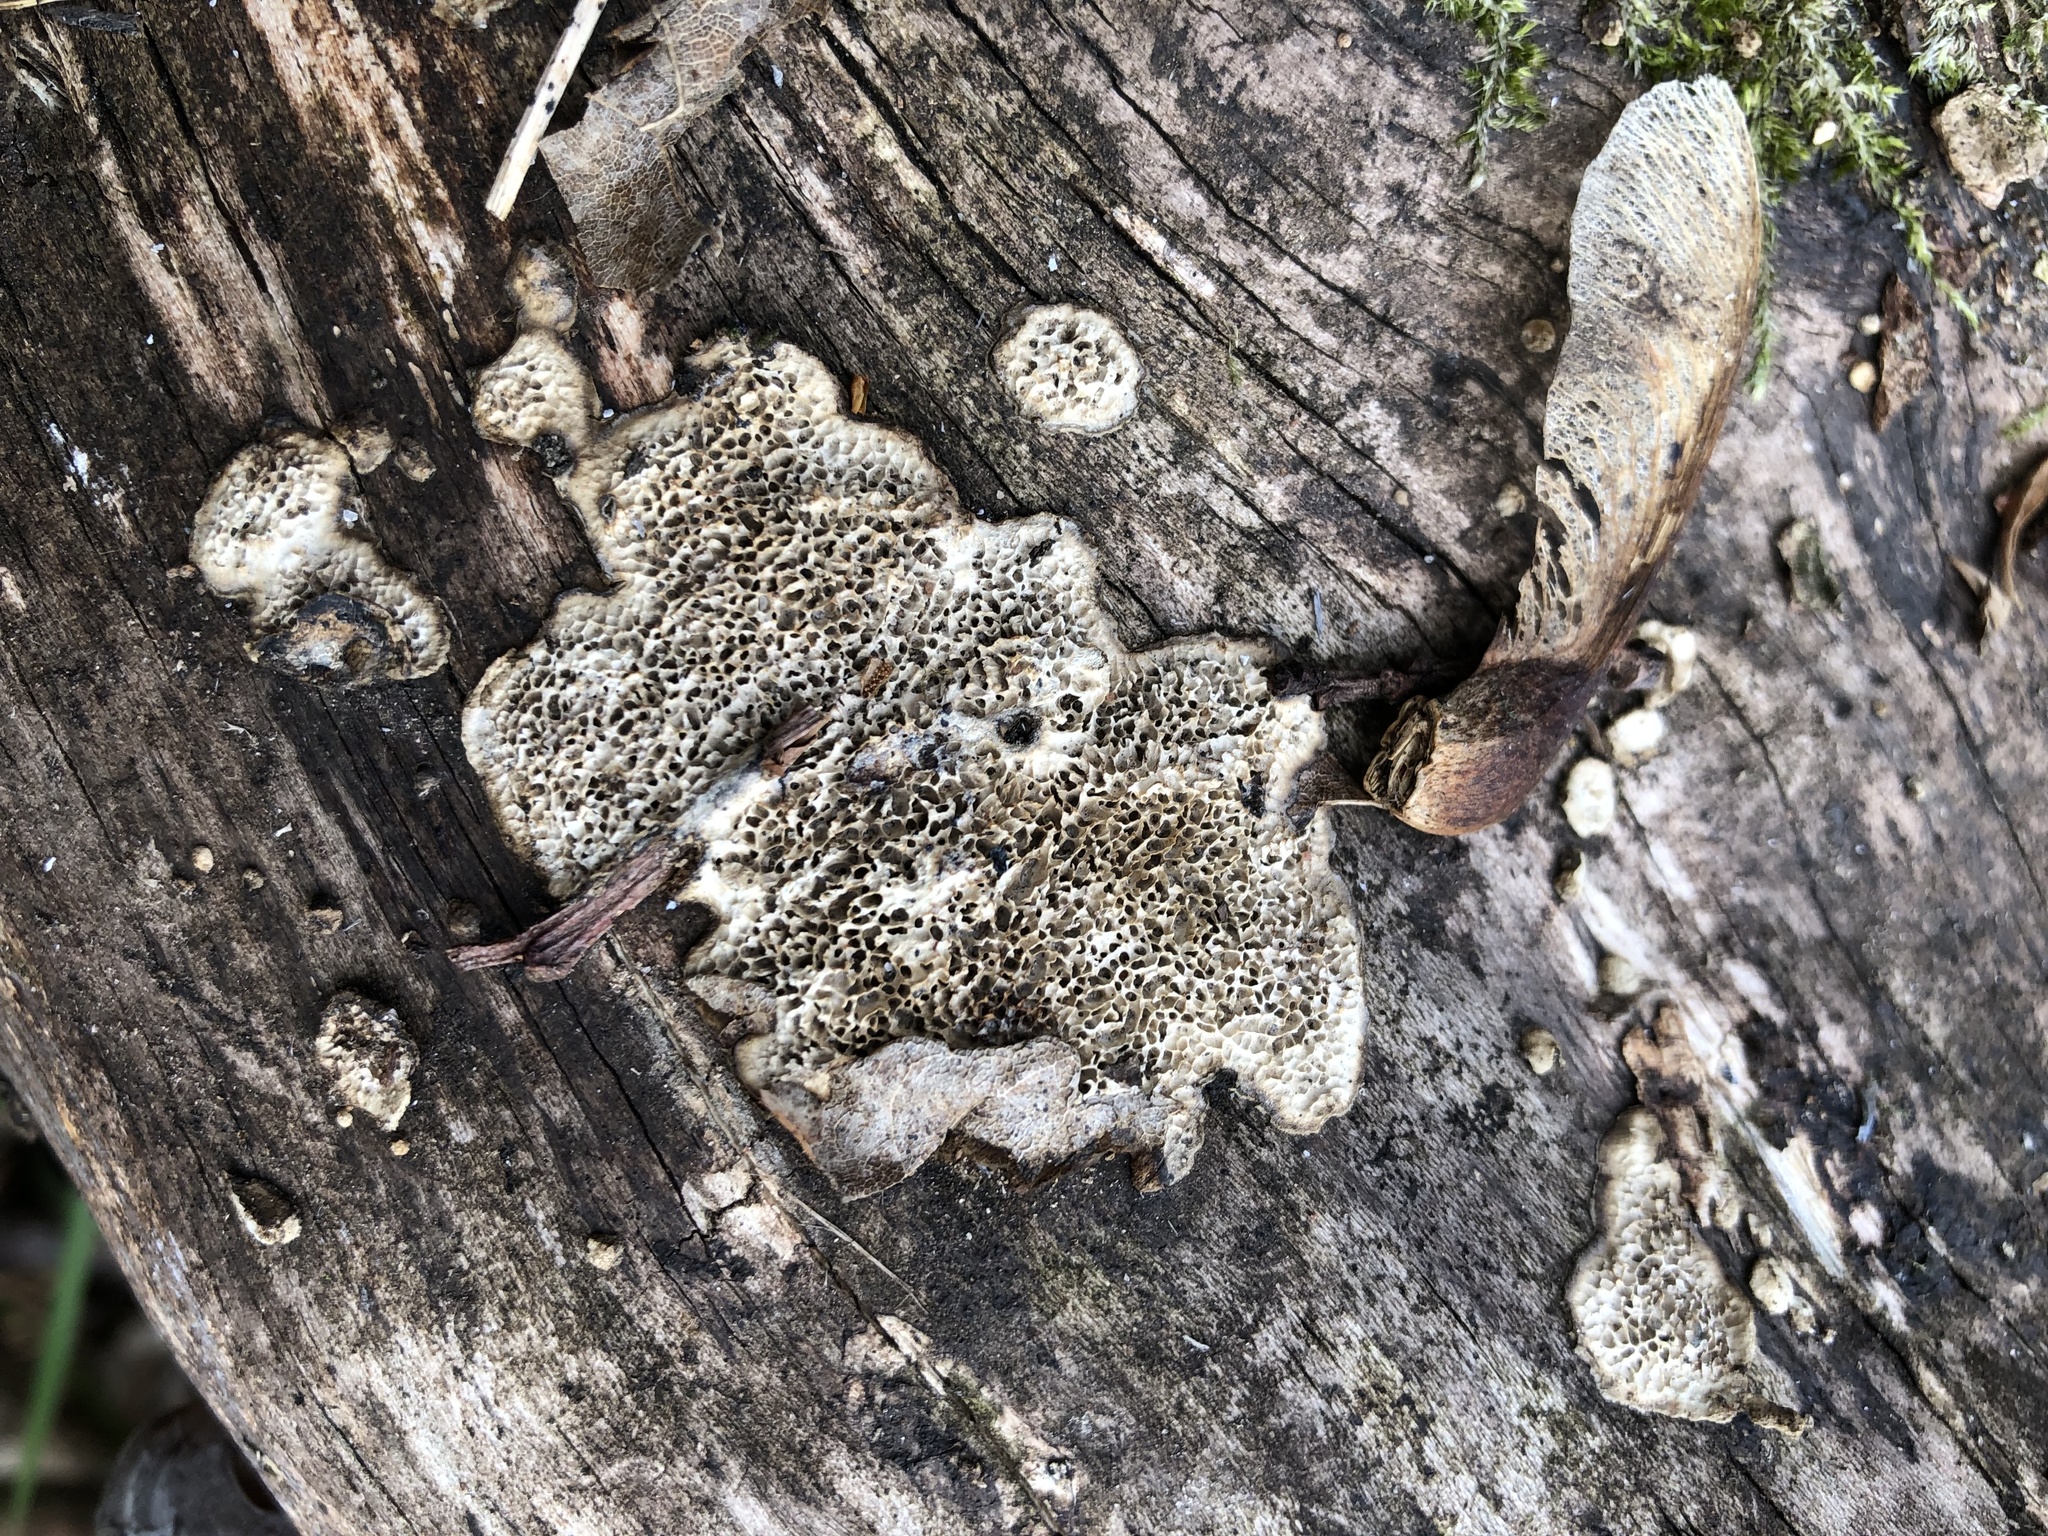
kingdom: Fungi
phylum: Basidiomycota
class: Agaricomycetes
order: Polyporales
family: Polyporaceae
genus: Podofomes
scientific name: Podofomes mollis
